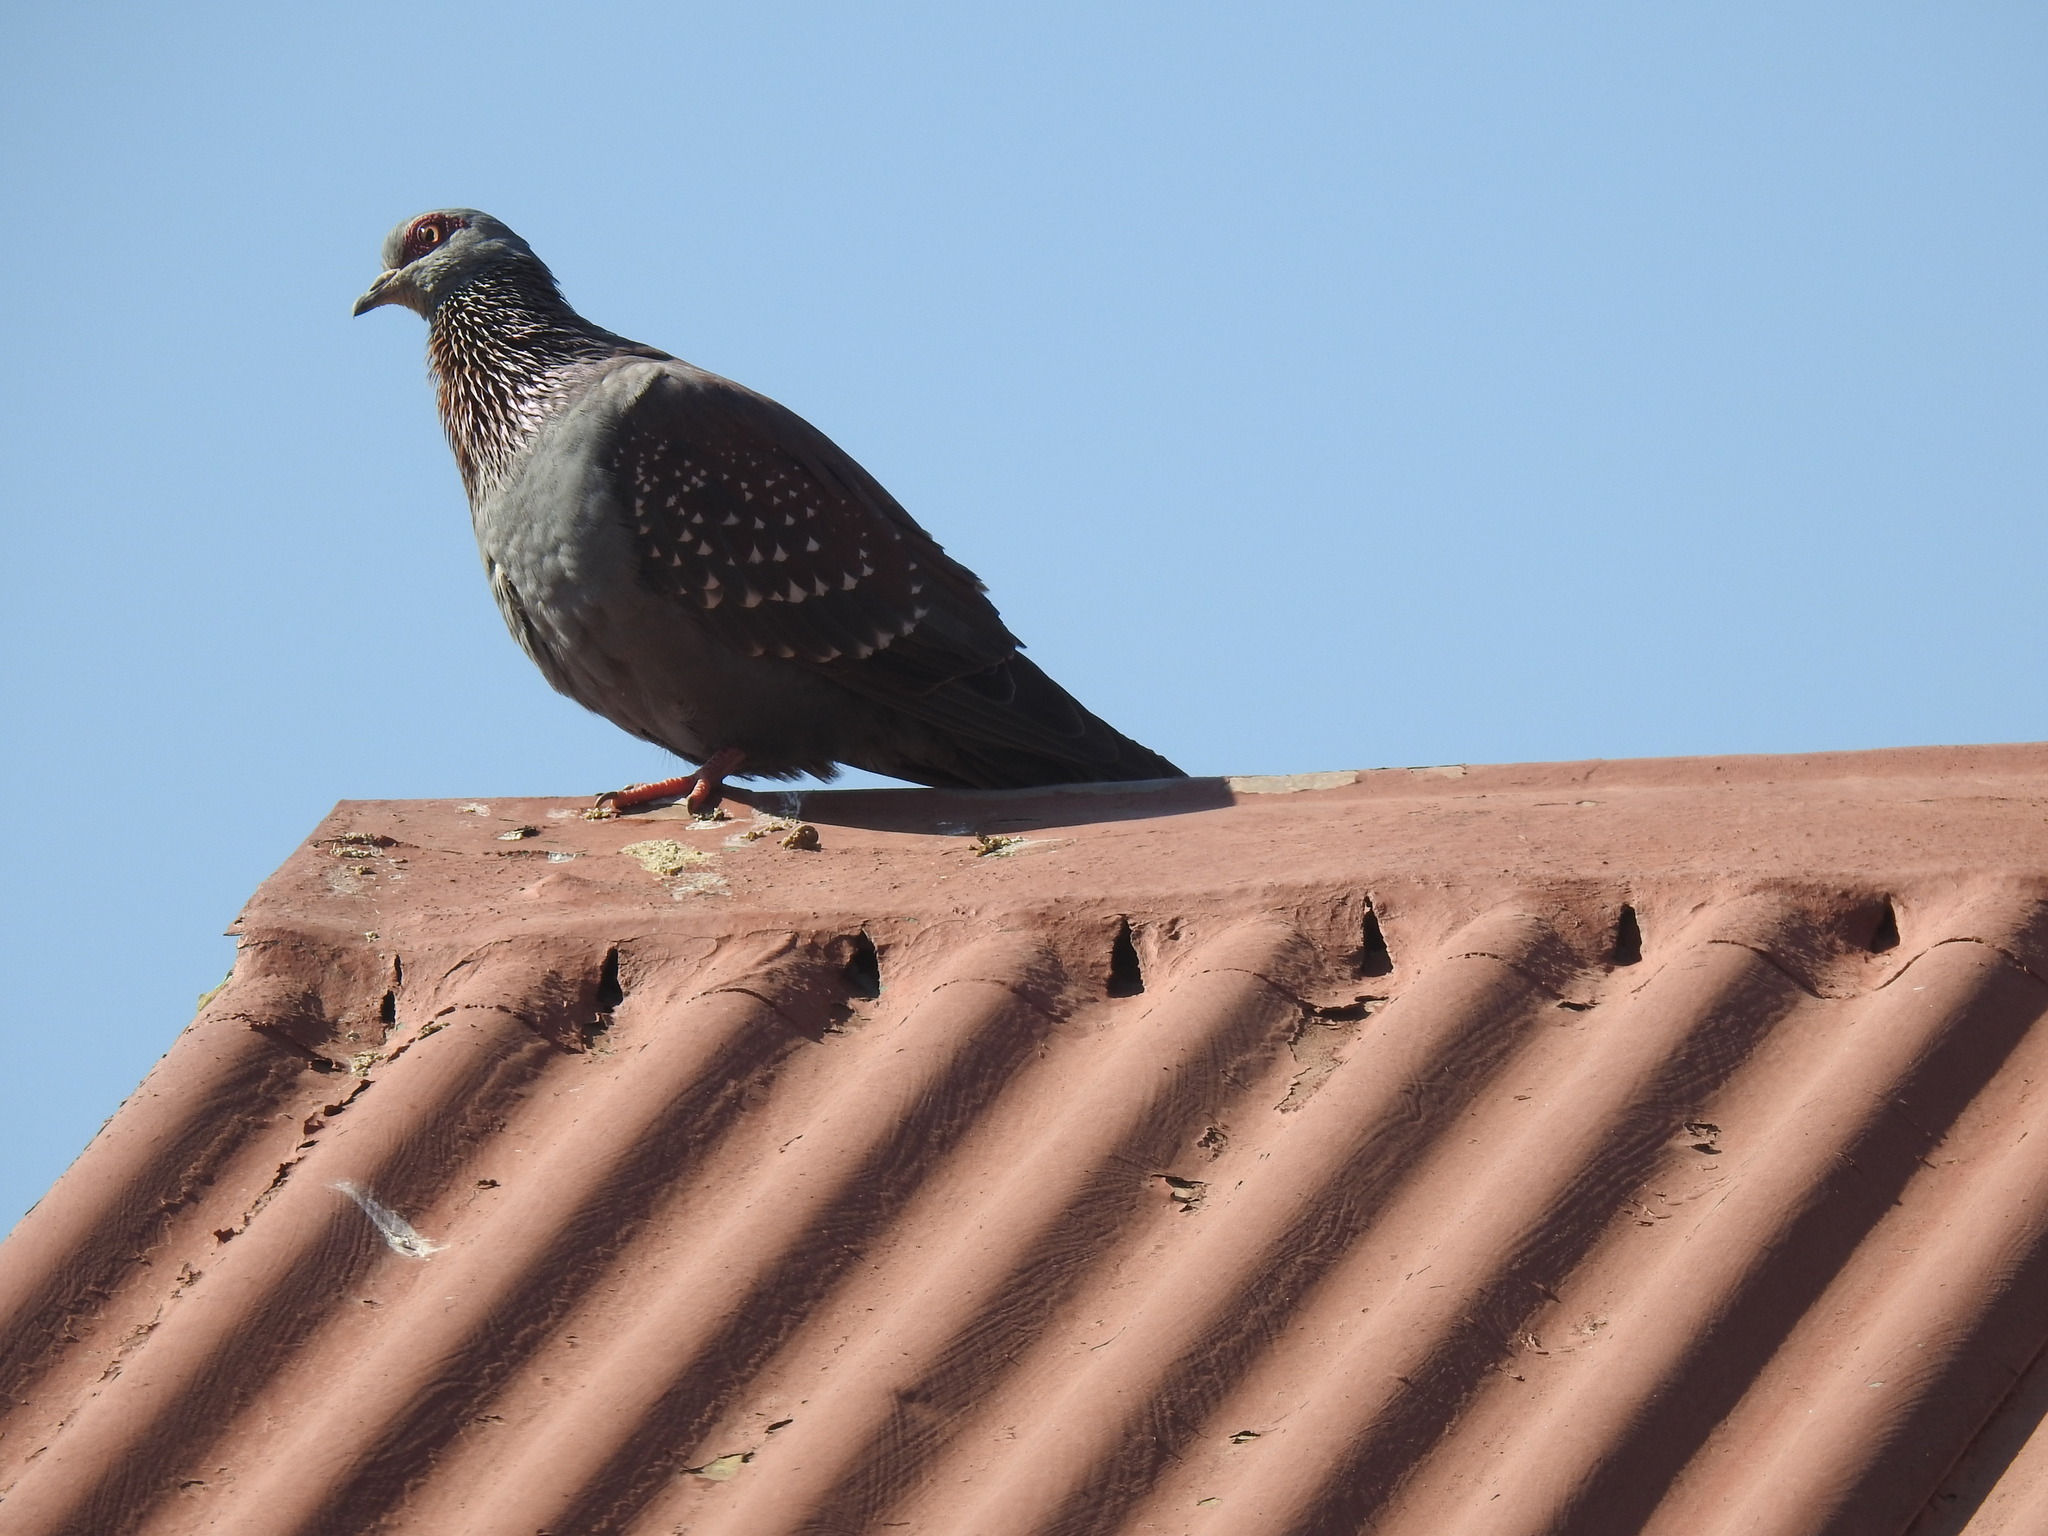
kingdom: Animalia
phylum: Chordata
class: Aves
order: Columbiformes
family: Columbidae
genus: Columba
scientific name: Columba guinea
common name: Speckled pigeon
